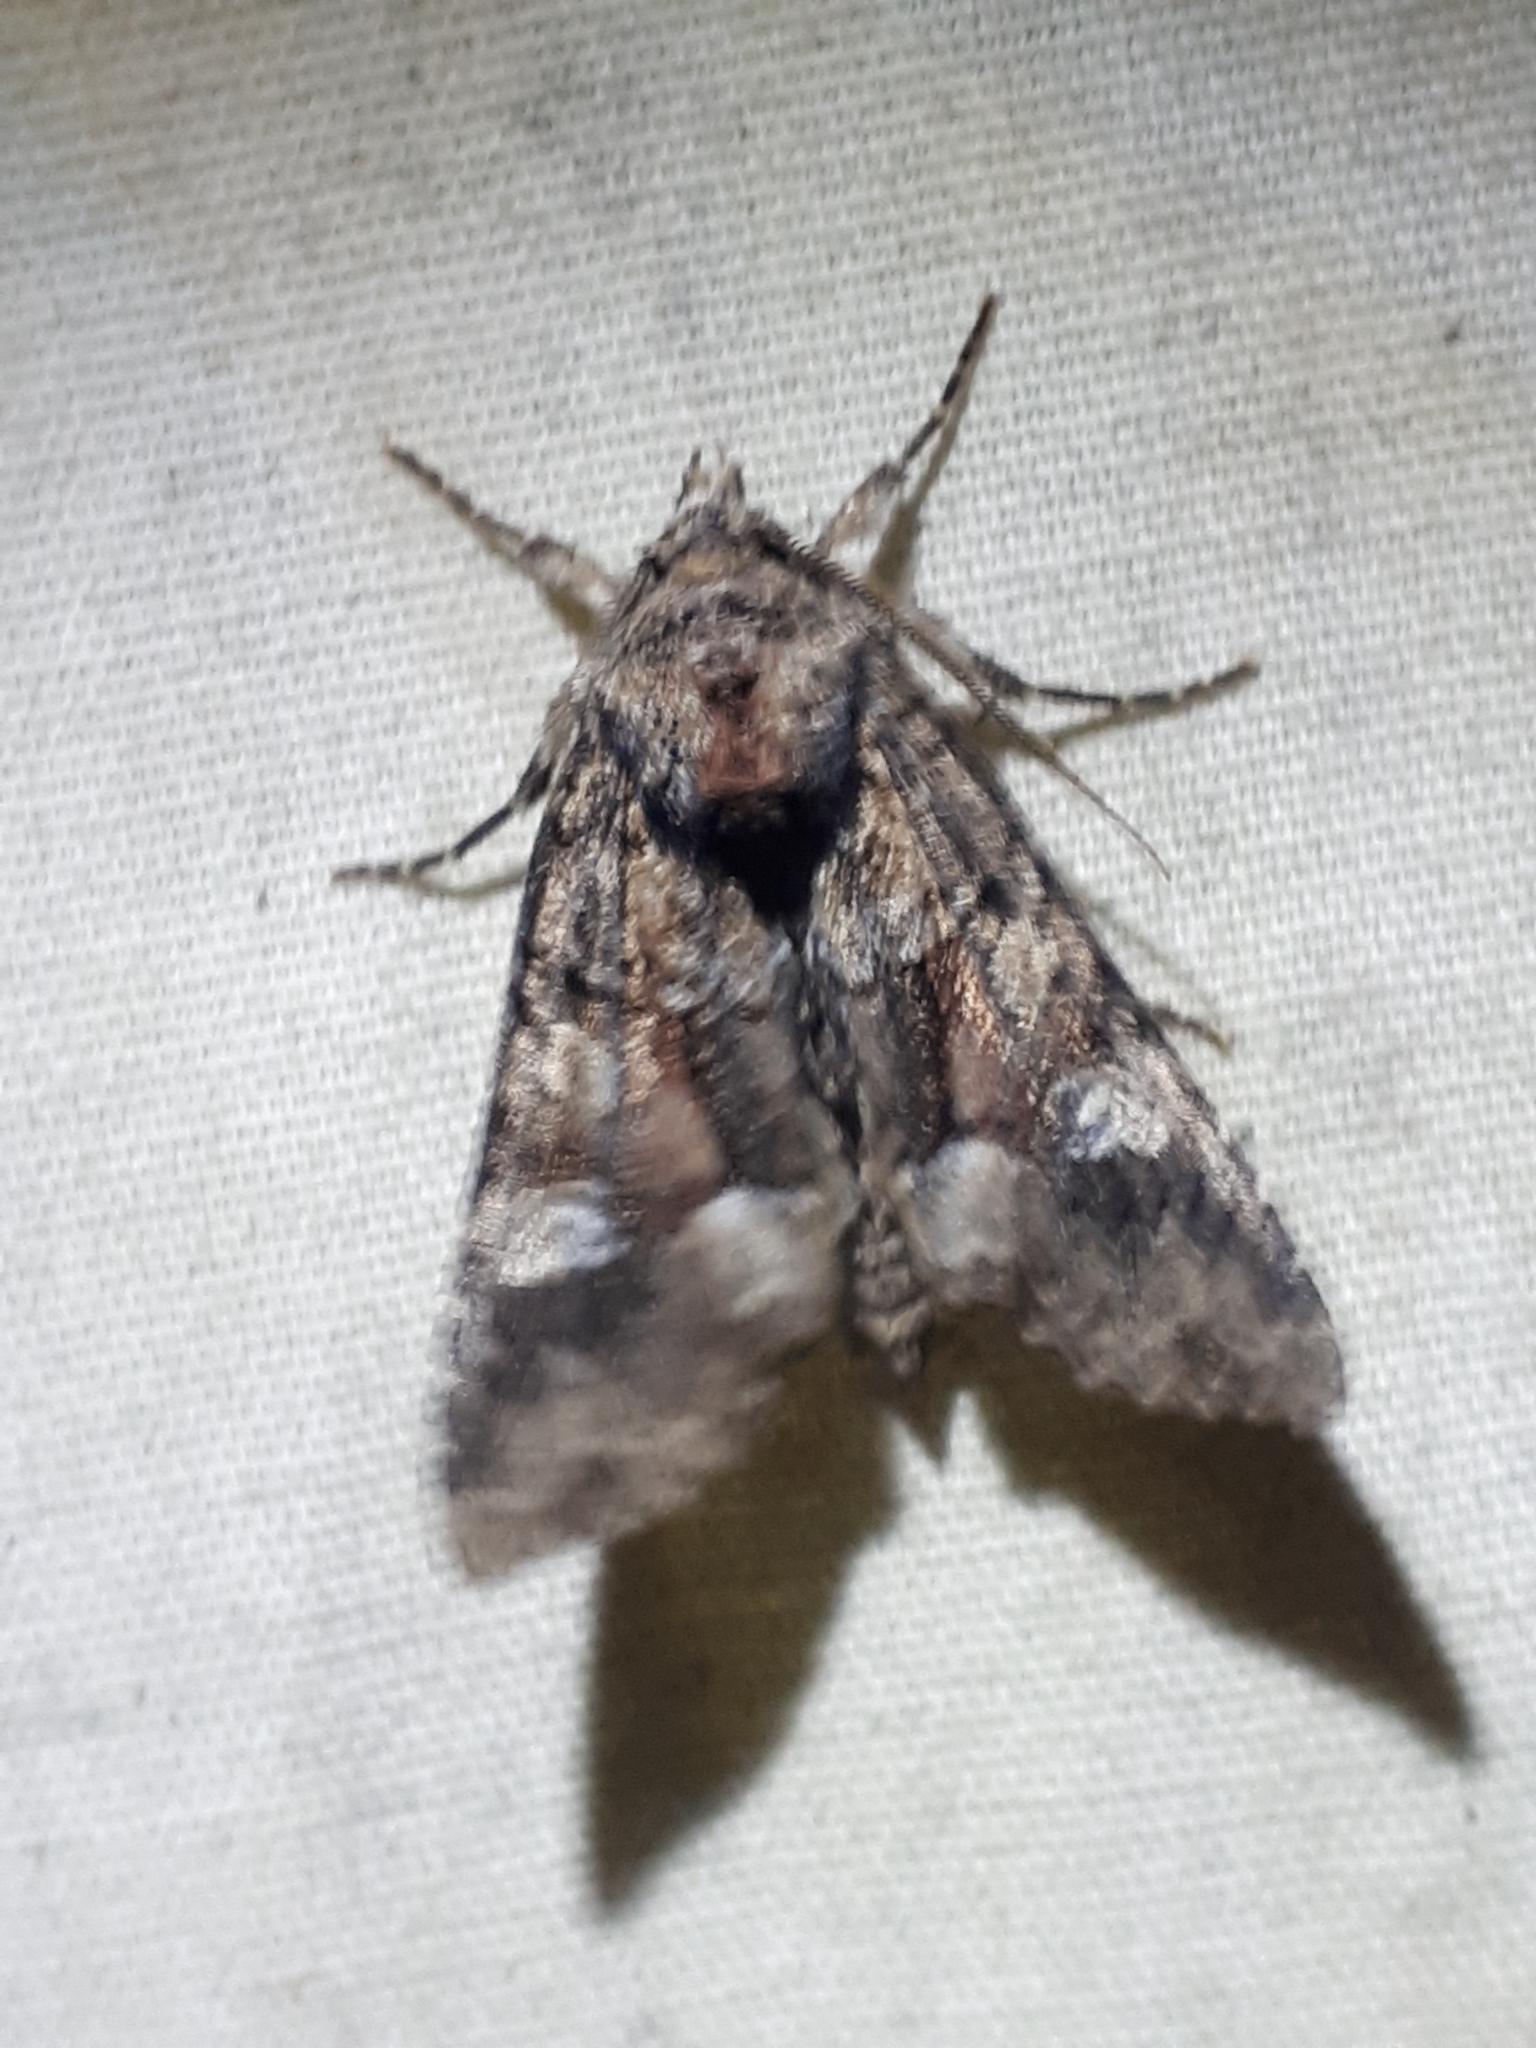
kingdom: Animalia
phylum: Arthropoda
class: Insecta
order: Lepidoptera
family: Noctuidae
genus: Fishia
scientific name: Fishia illocata
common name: Wandering brocade moth
